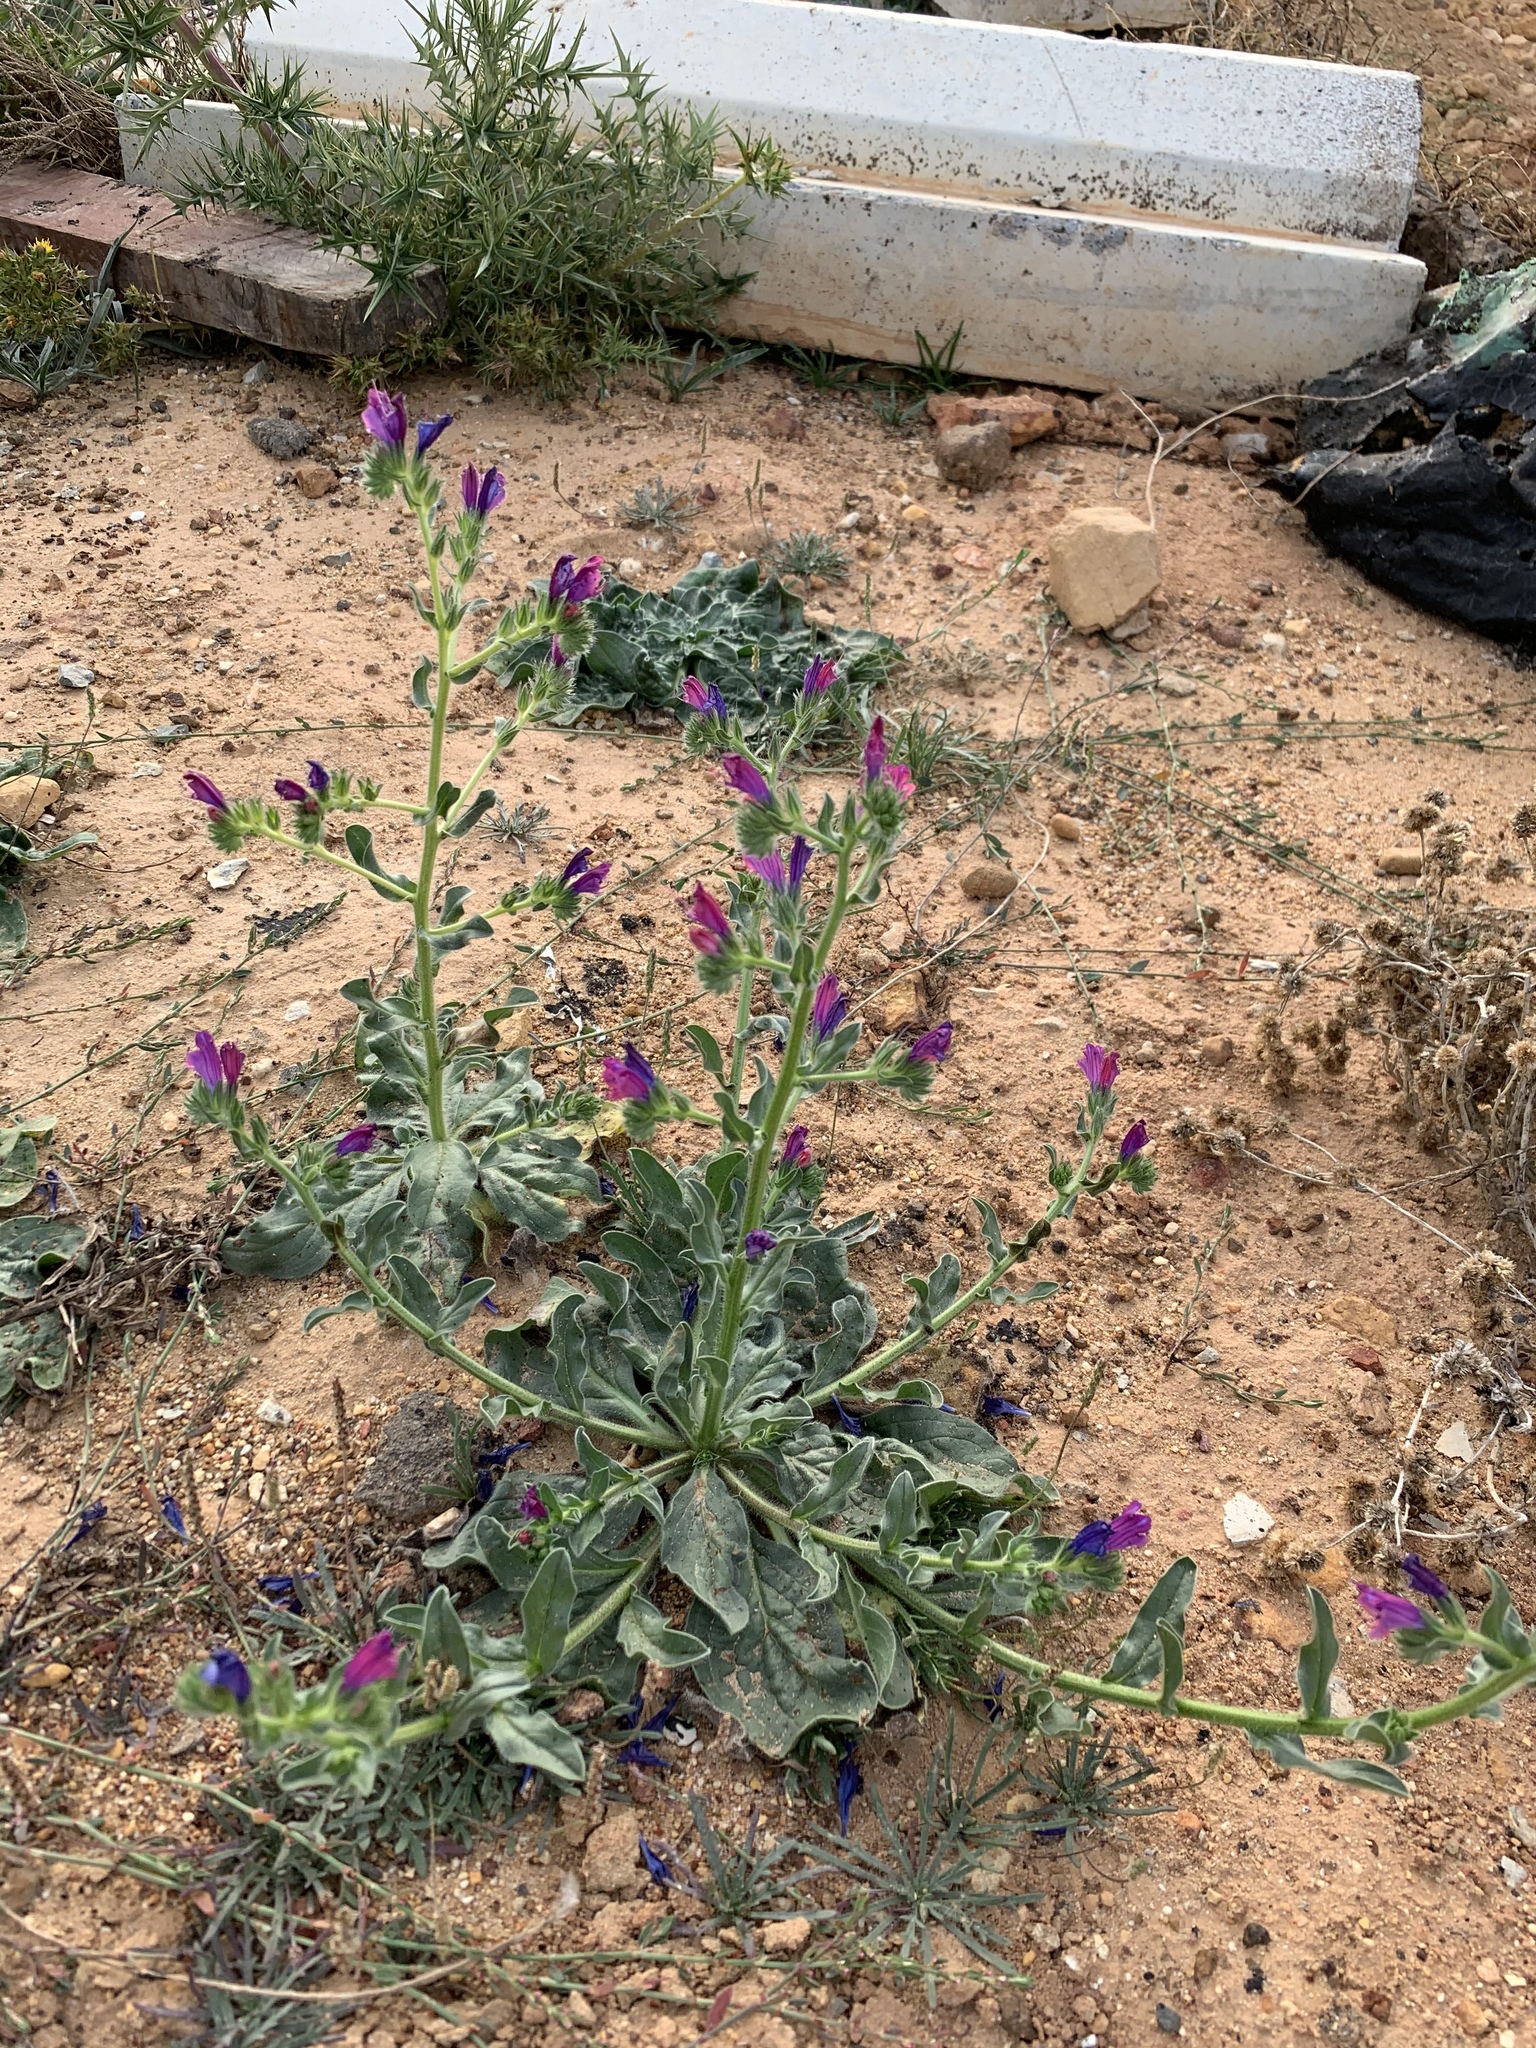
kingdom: Plantae
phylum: Tracheophyta
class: Magnoliopsida
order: Boraginales
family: Boraginaceae
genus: Echium
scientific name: Echium plantagineum
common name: Purple viper's-bugloss
